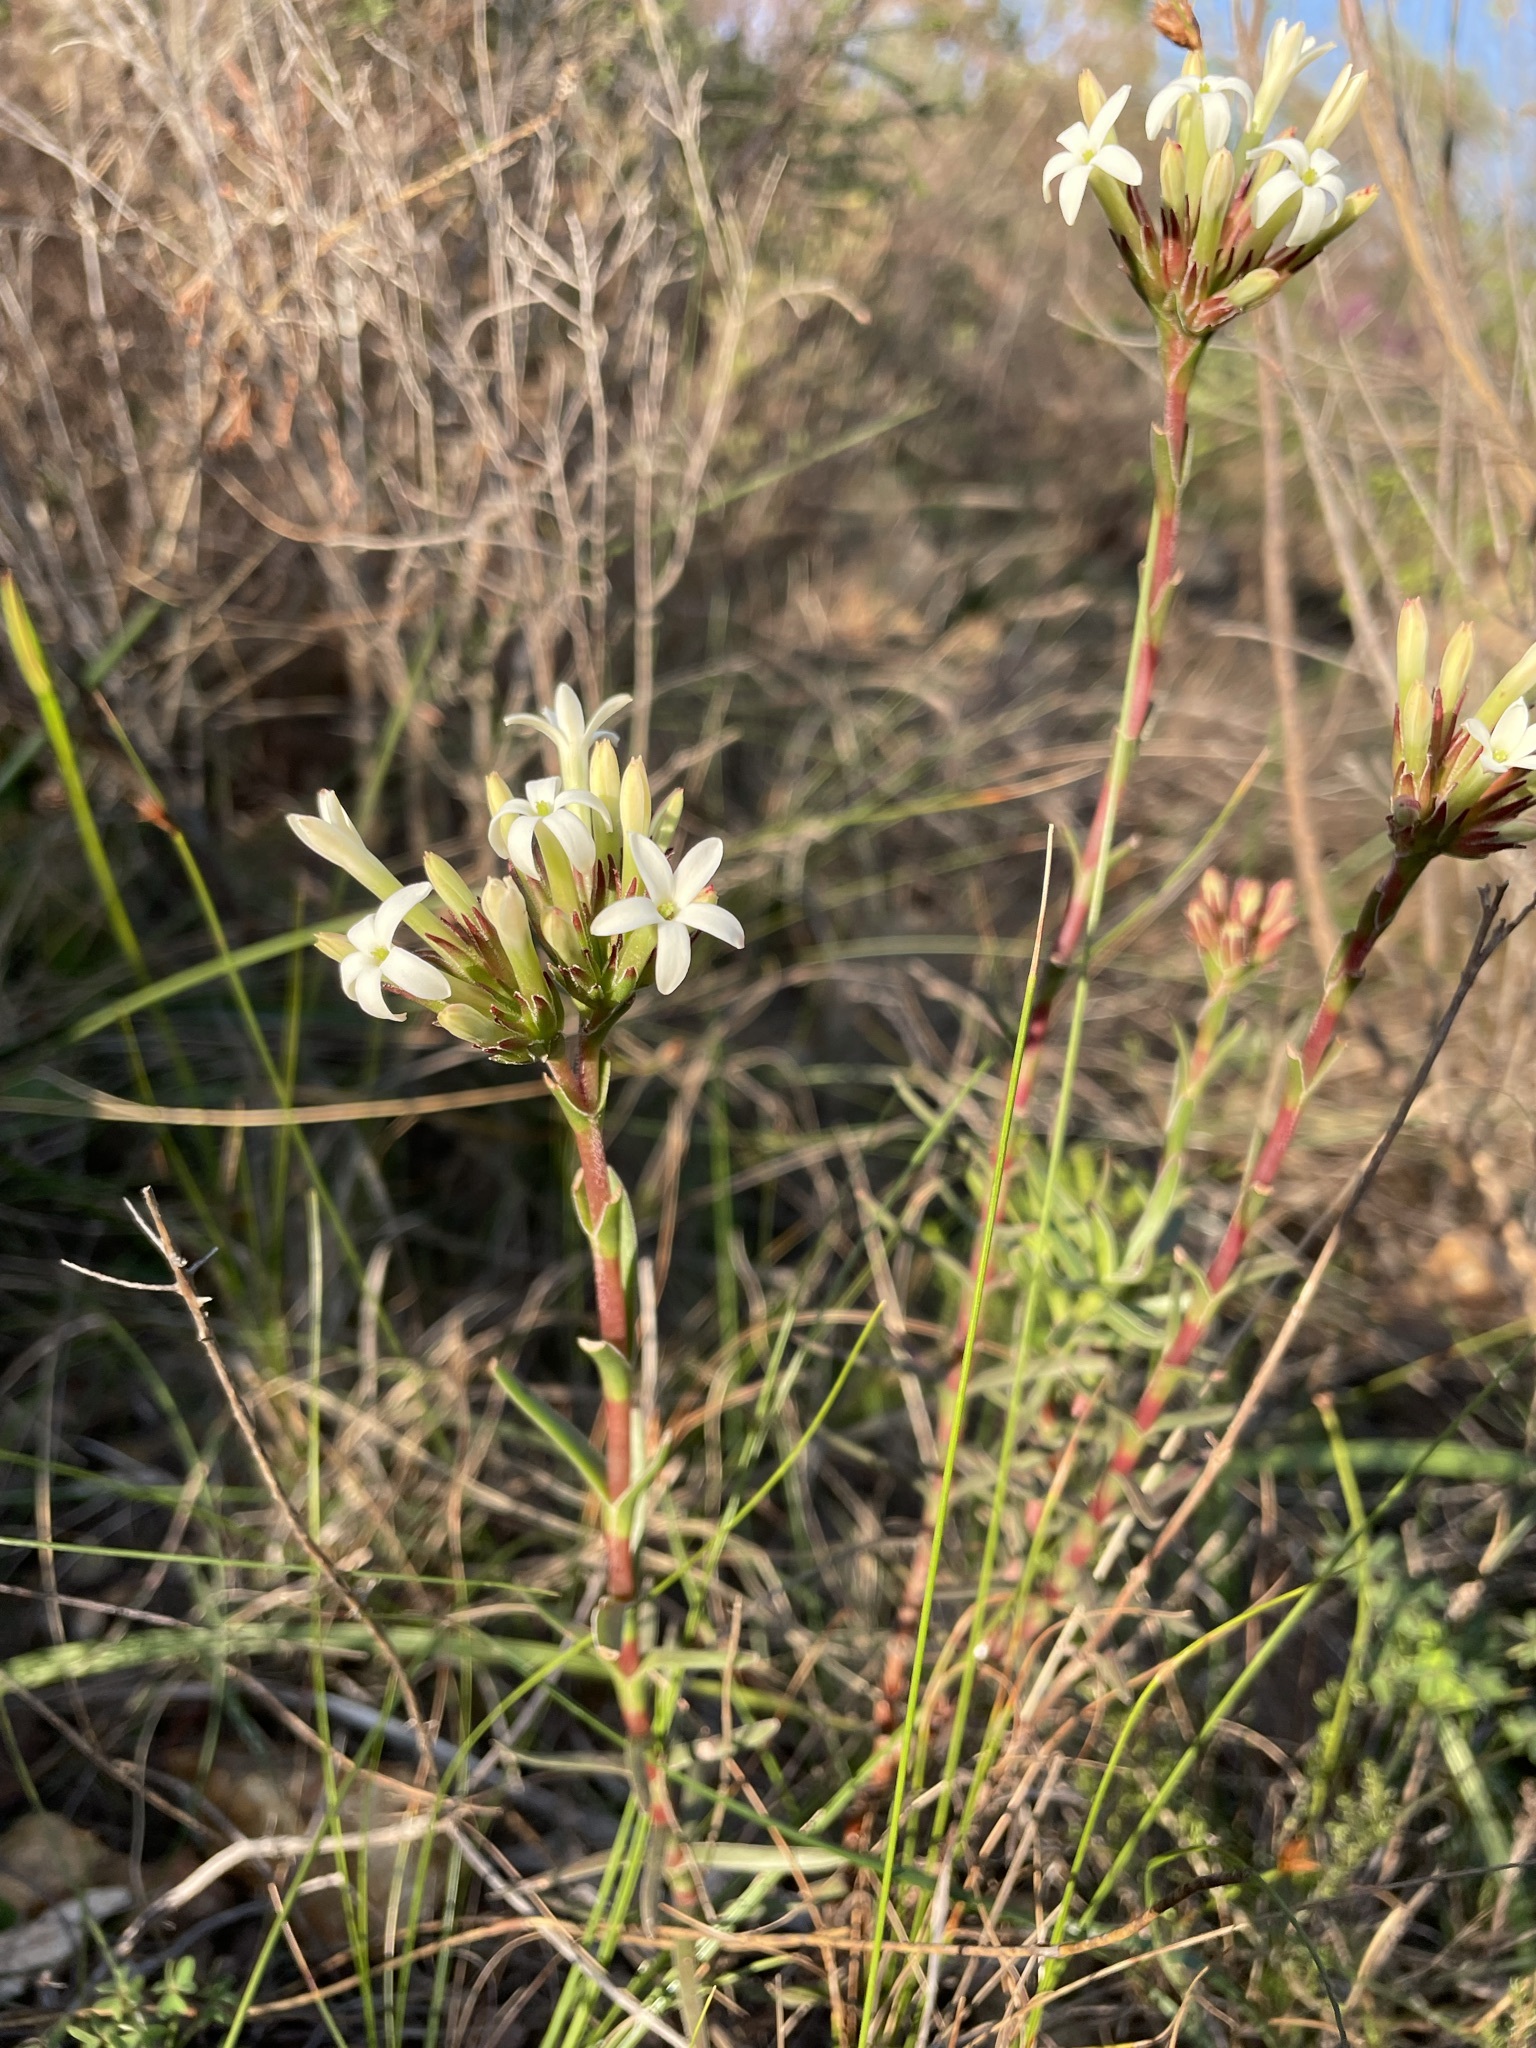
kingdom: Plantae
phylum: Tracheophyta
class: Magnoliopsida
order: Saxifragales
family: Crassulaceae
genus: Crassula
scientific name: Crassula fascicularis
